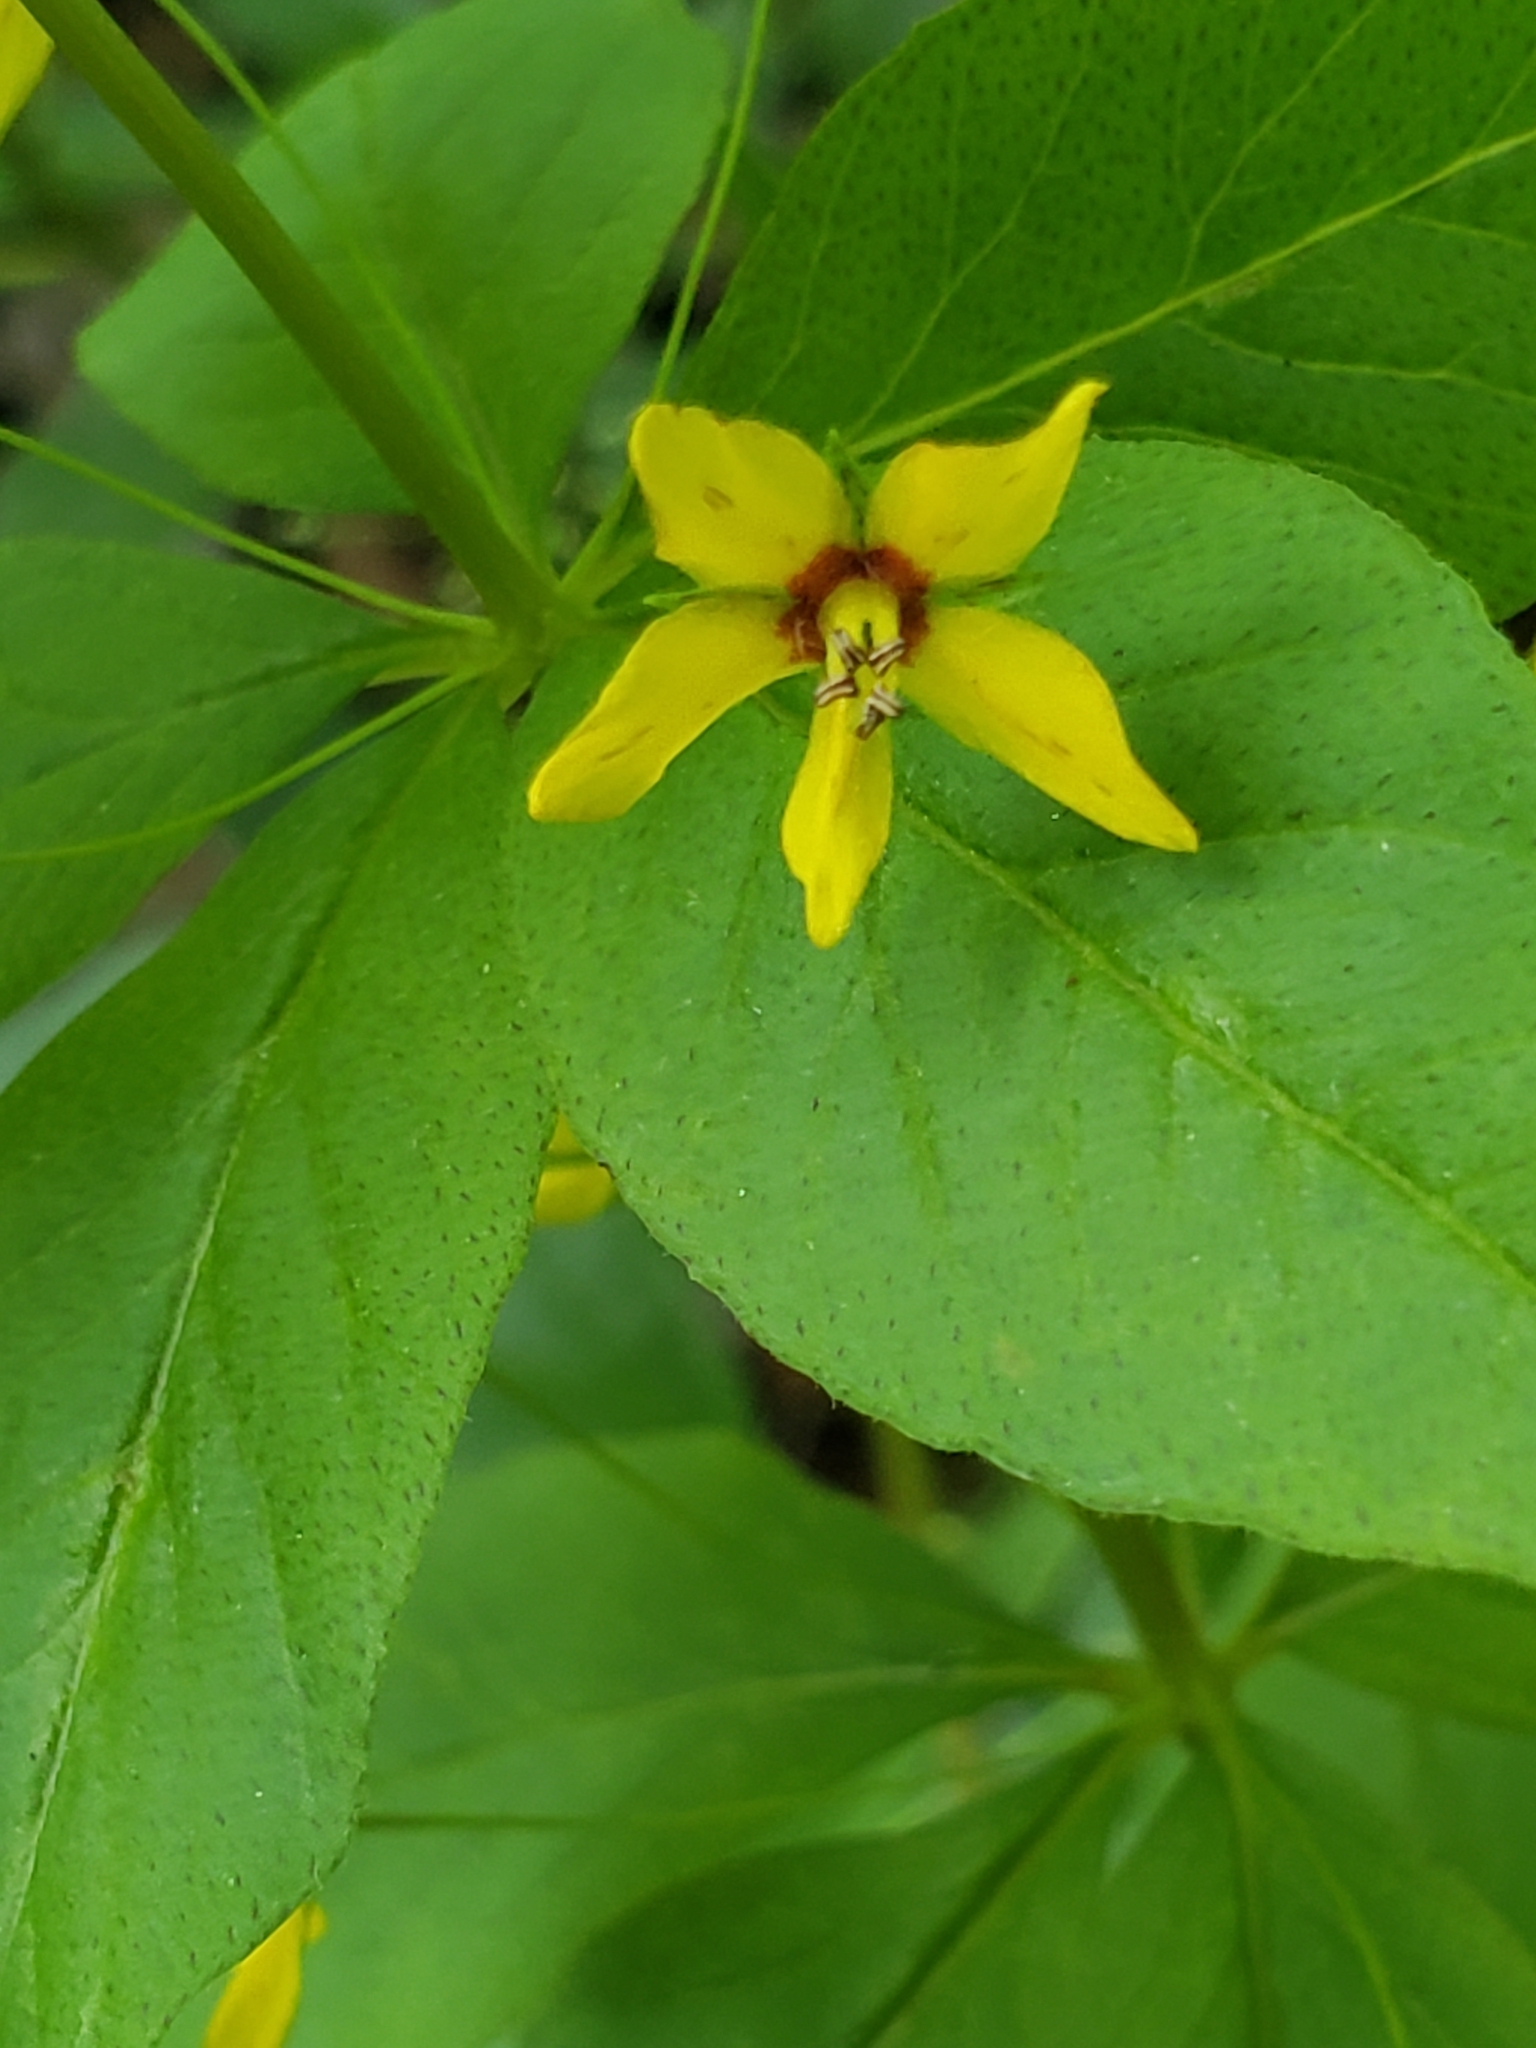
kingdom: Plantae
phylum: Tracheophyta
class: Magnoliopsida
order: Ericales
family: Primulaceae
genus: Lysimachia
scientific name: Lysimachia quadrifolia
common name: Whorled loosestrife
